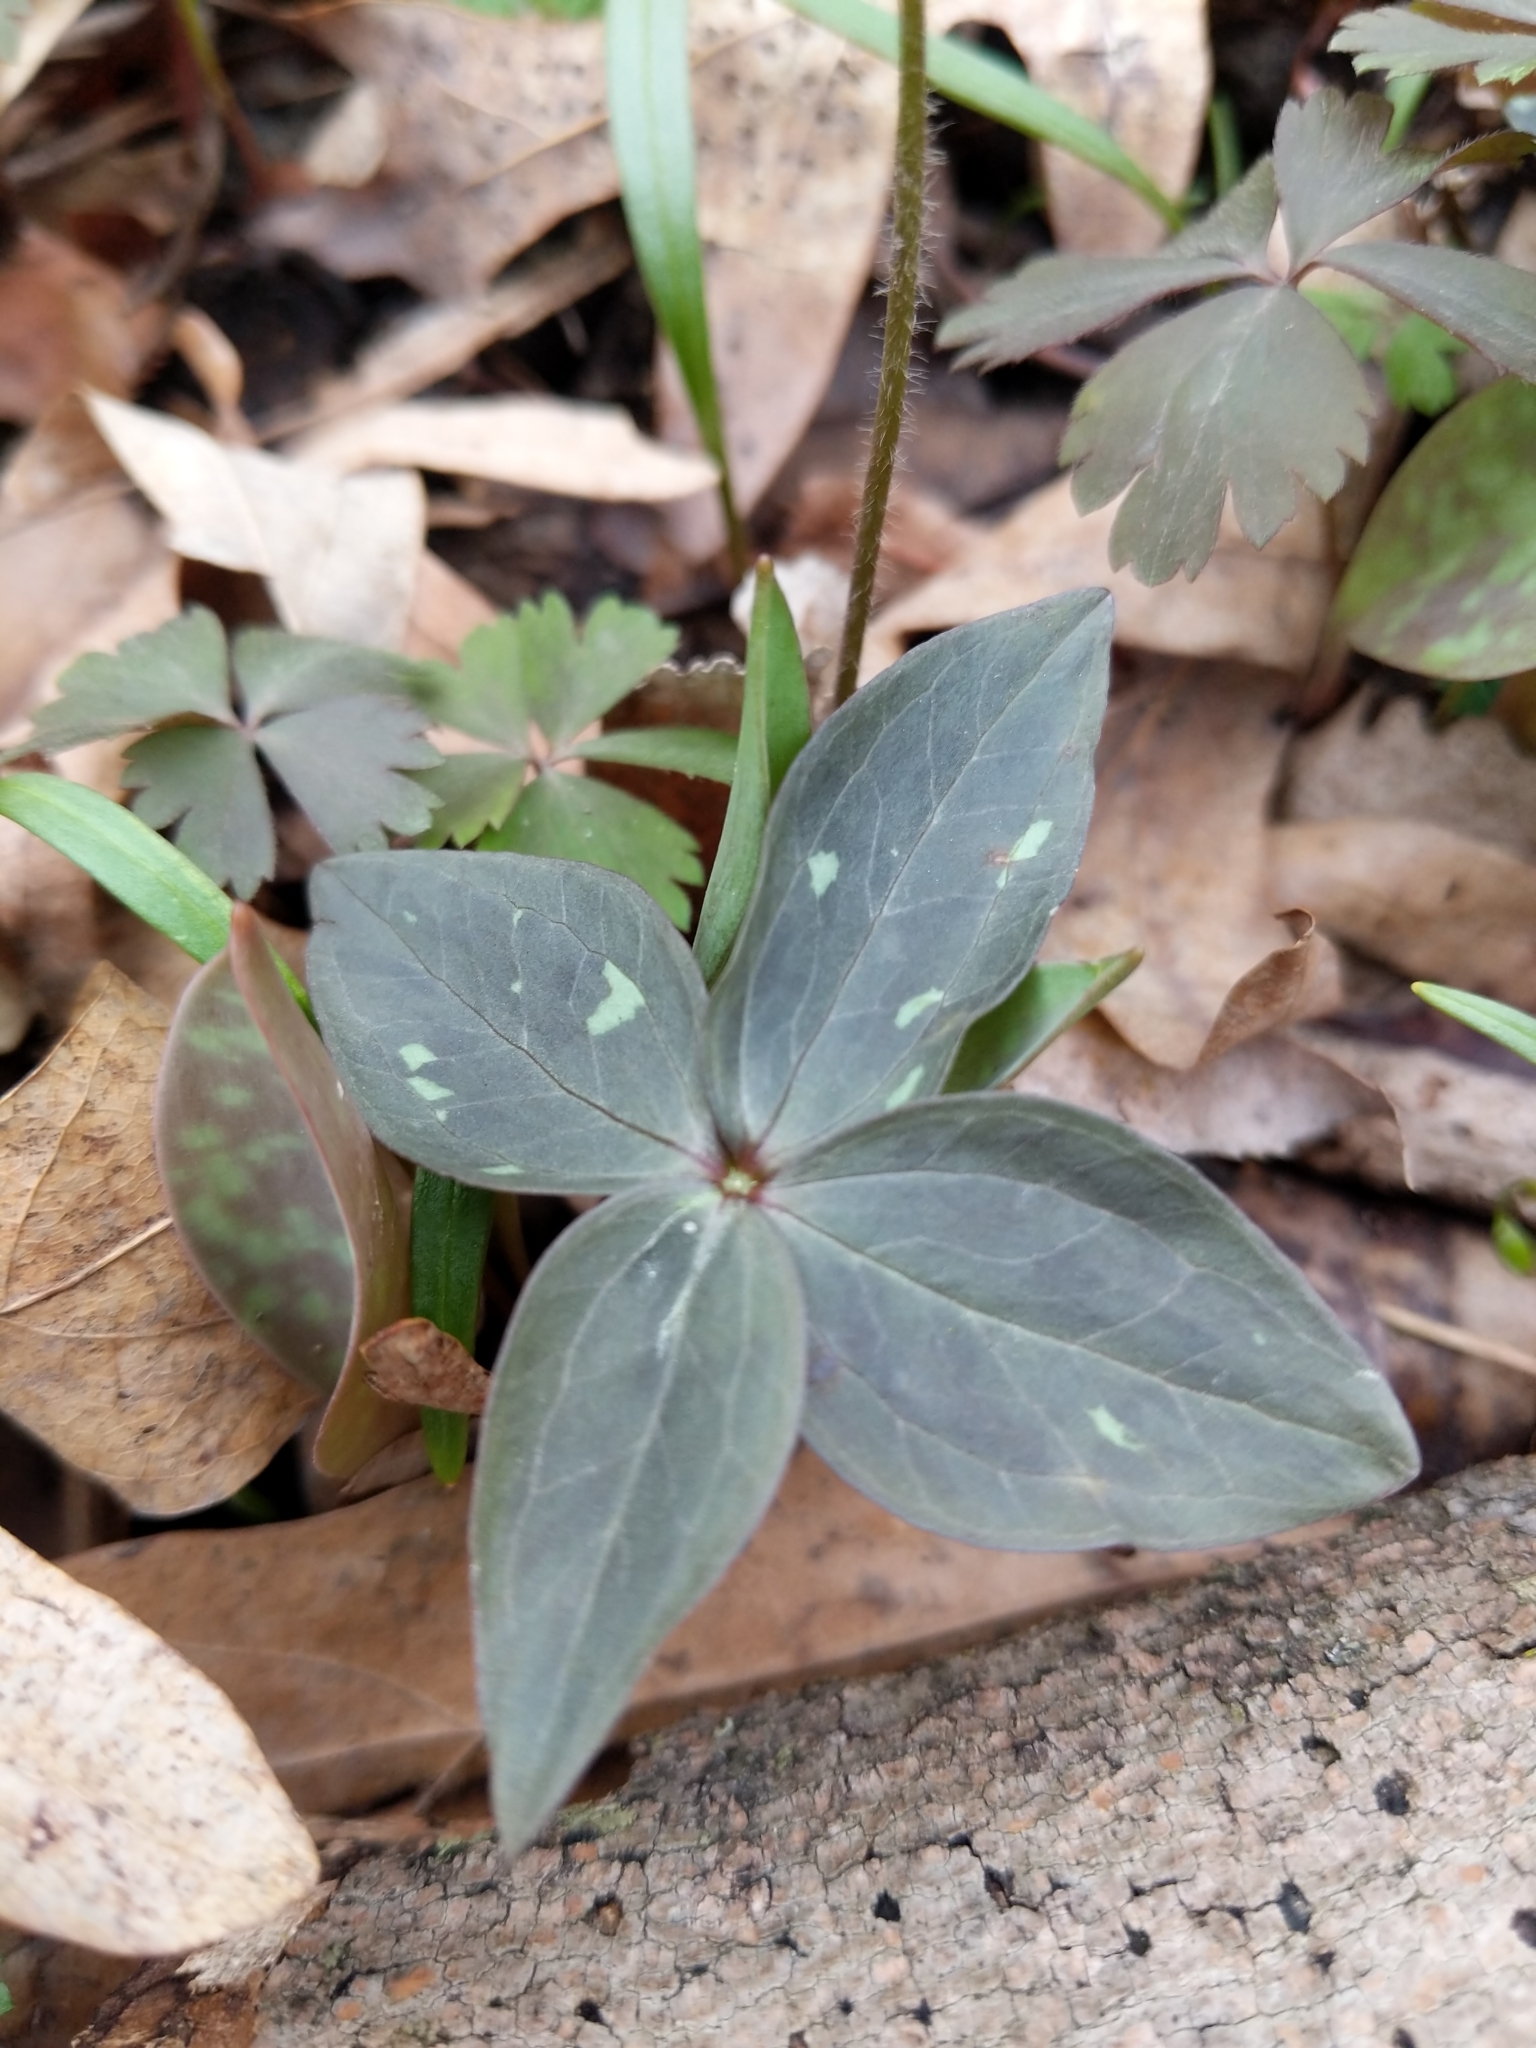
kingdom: Plantae
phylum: Tracheophyta
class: Liliopsida
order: Liliales
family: Melanthiaceae
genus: Trillium
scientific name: Trillium recurvatum
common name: Bloody butcher
